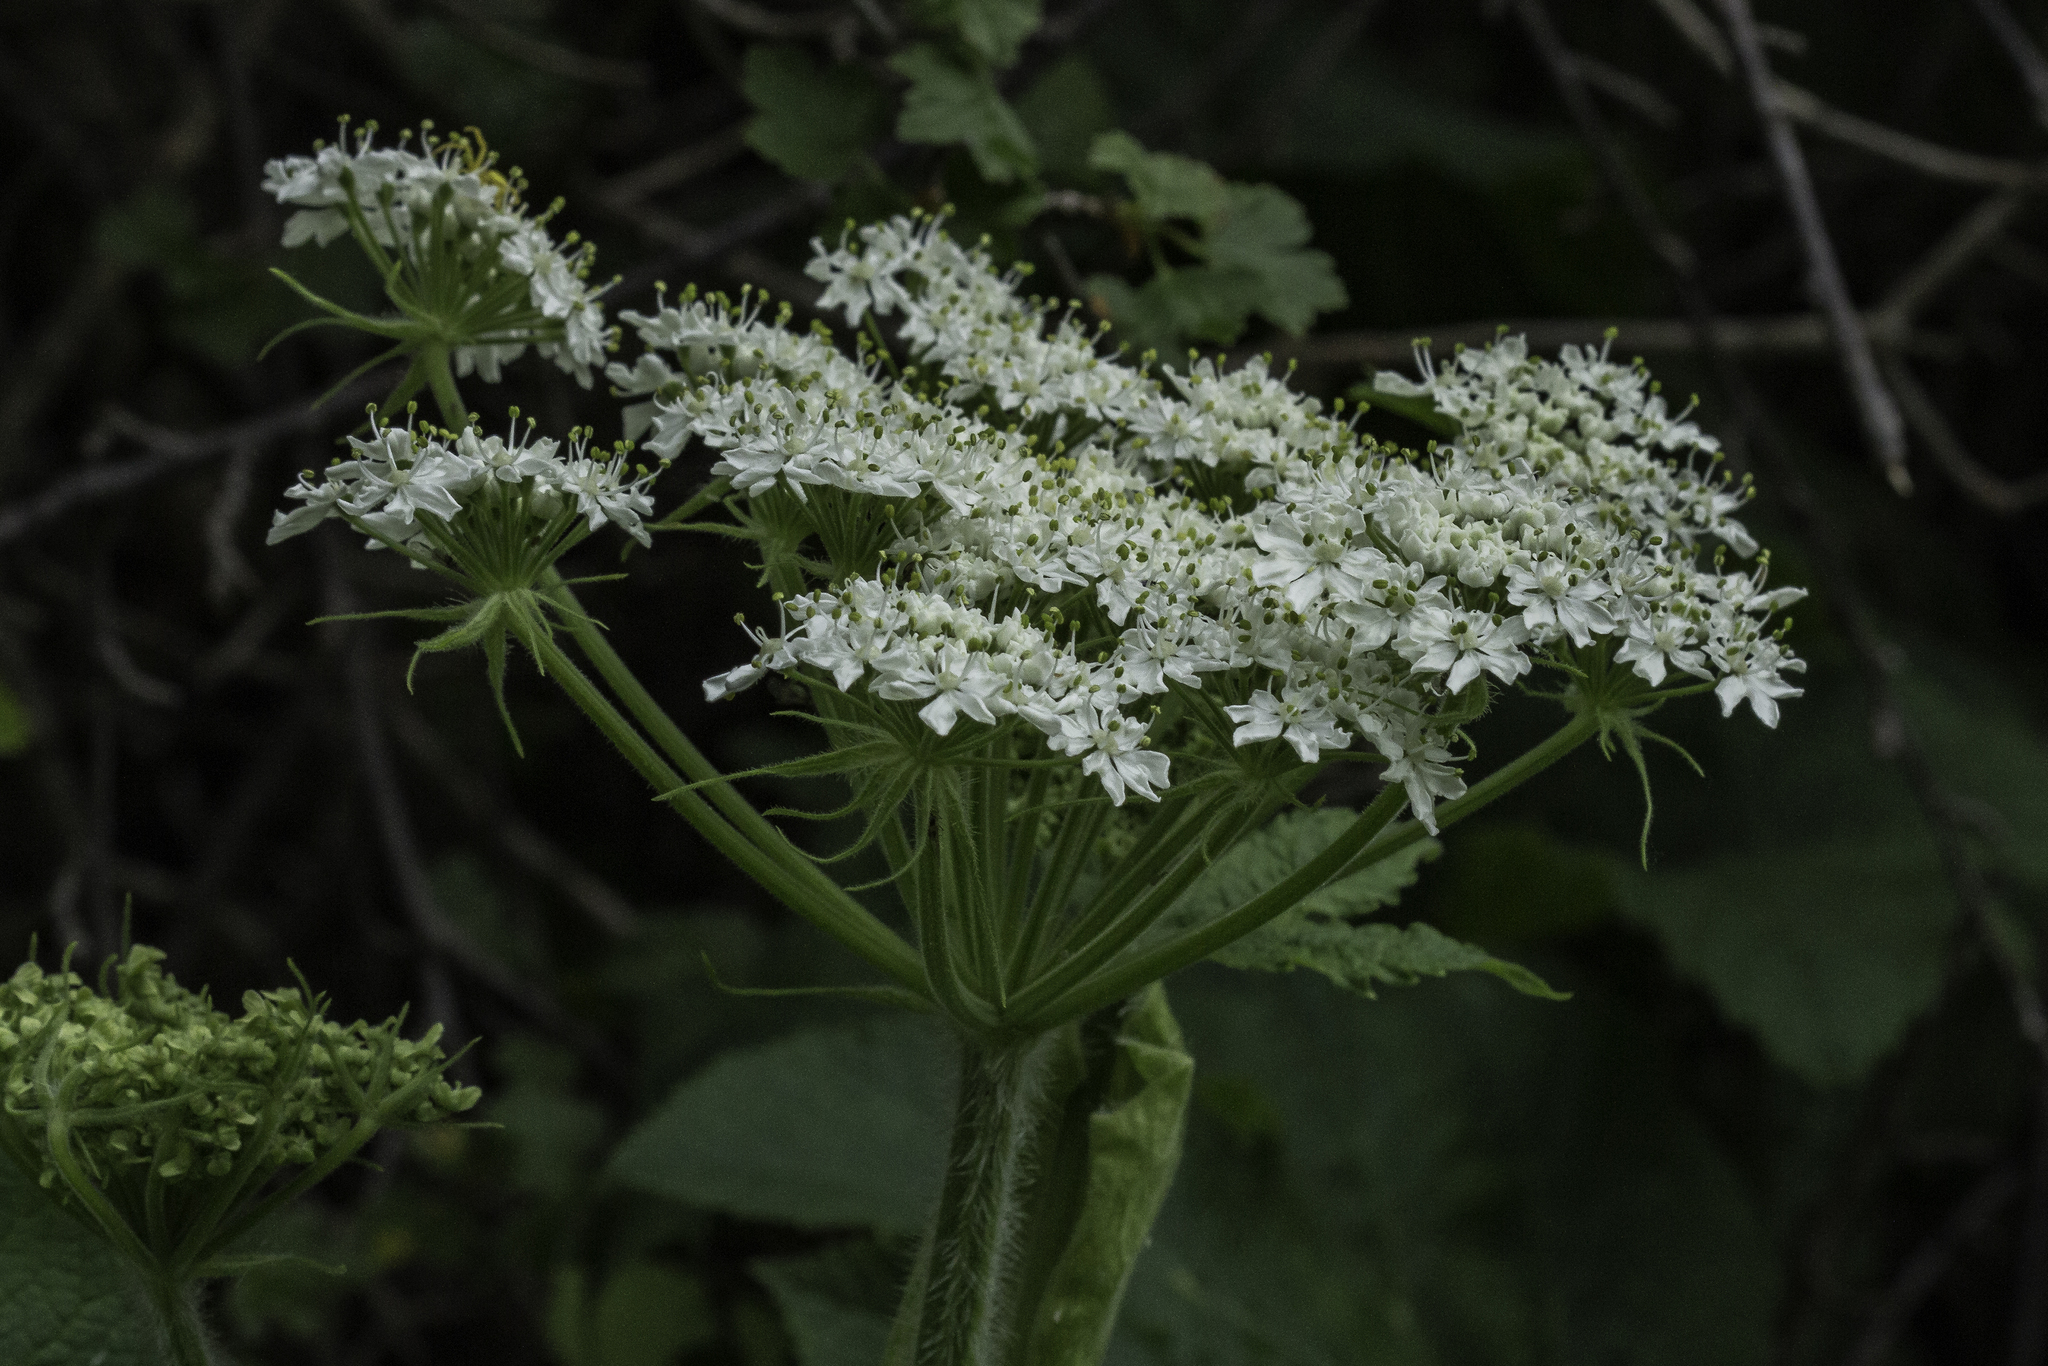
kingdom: Plantae
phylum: Tracheophyta
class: Magnoliopsida
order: Apiales
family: Apiaceae
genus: Heracleum
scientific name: Heracleum maximum
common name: American cow parsnip
